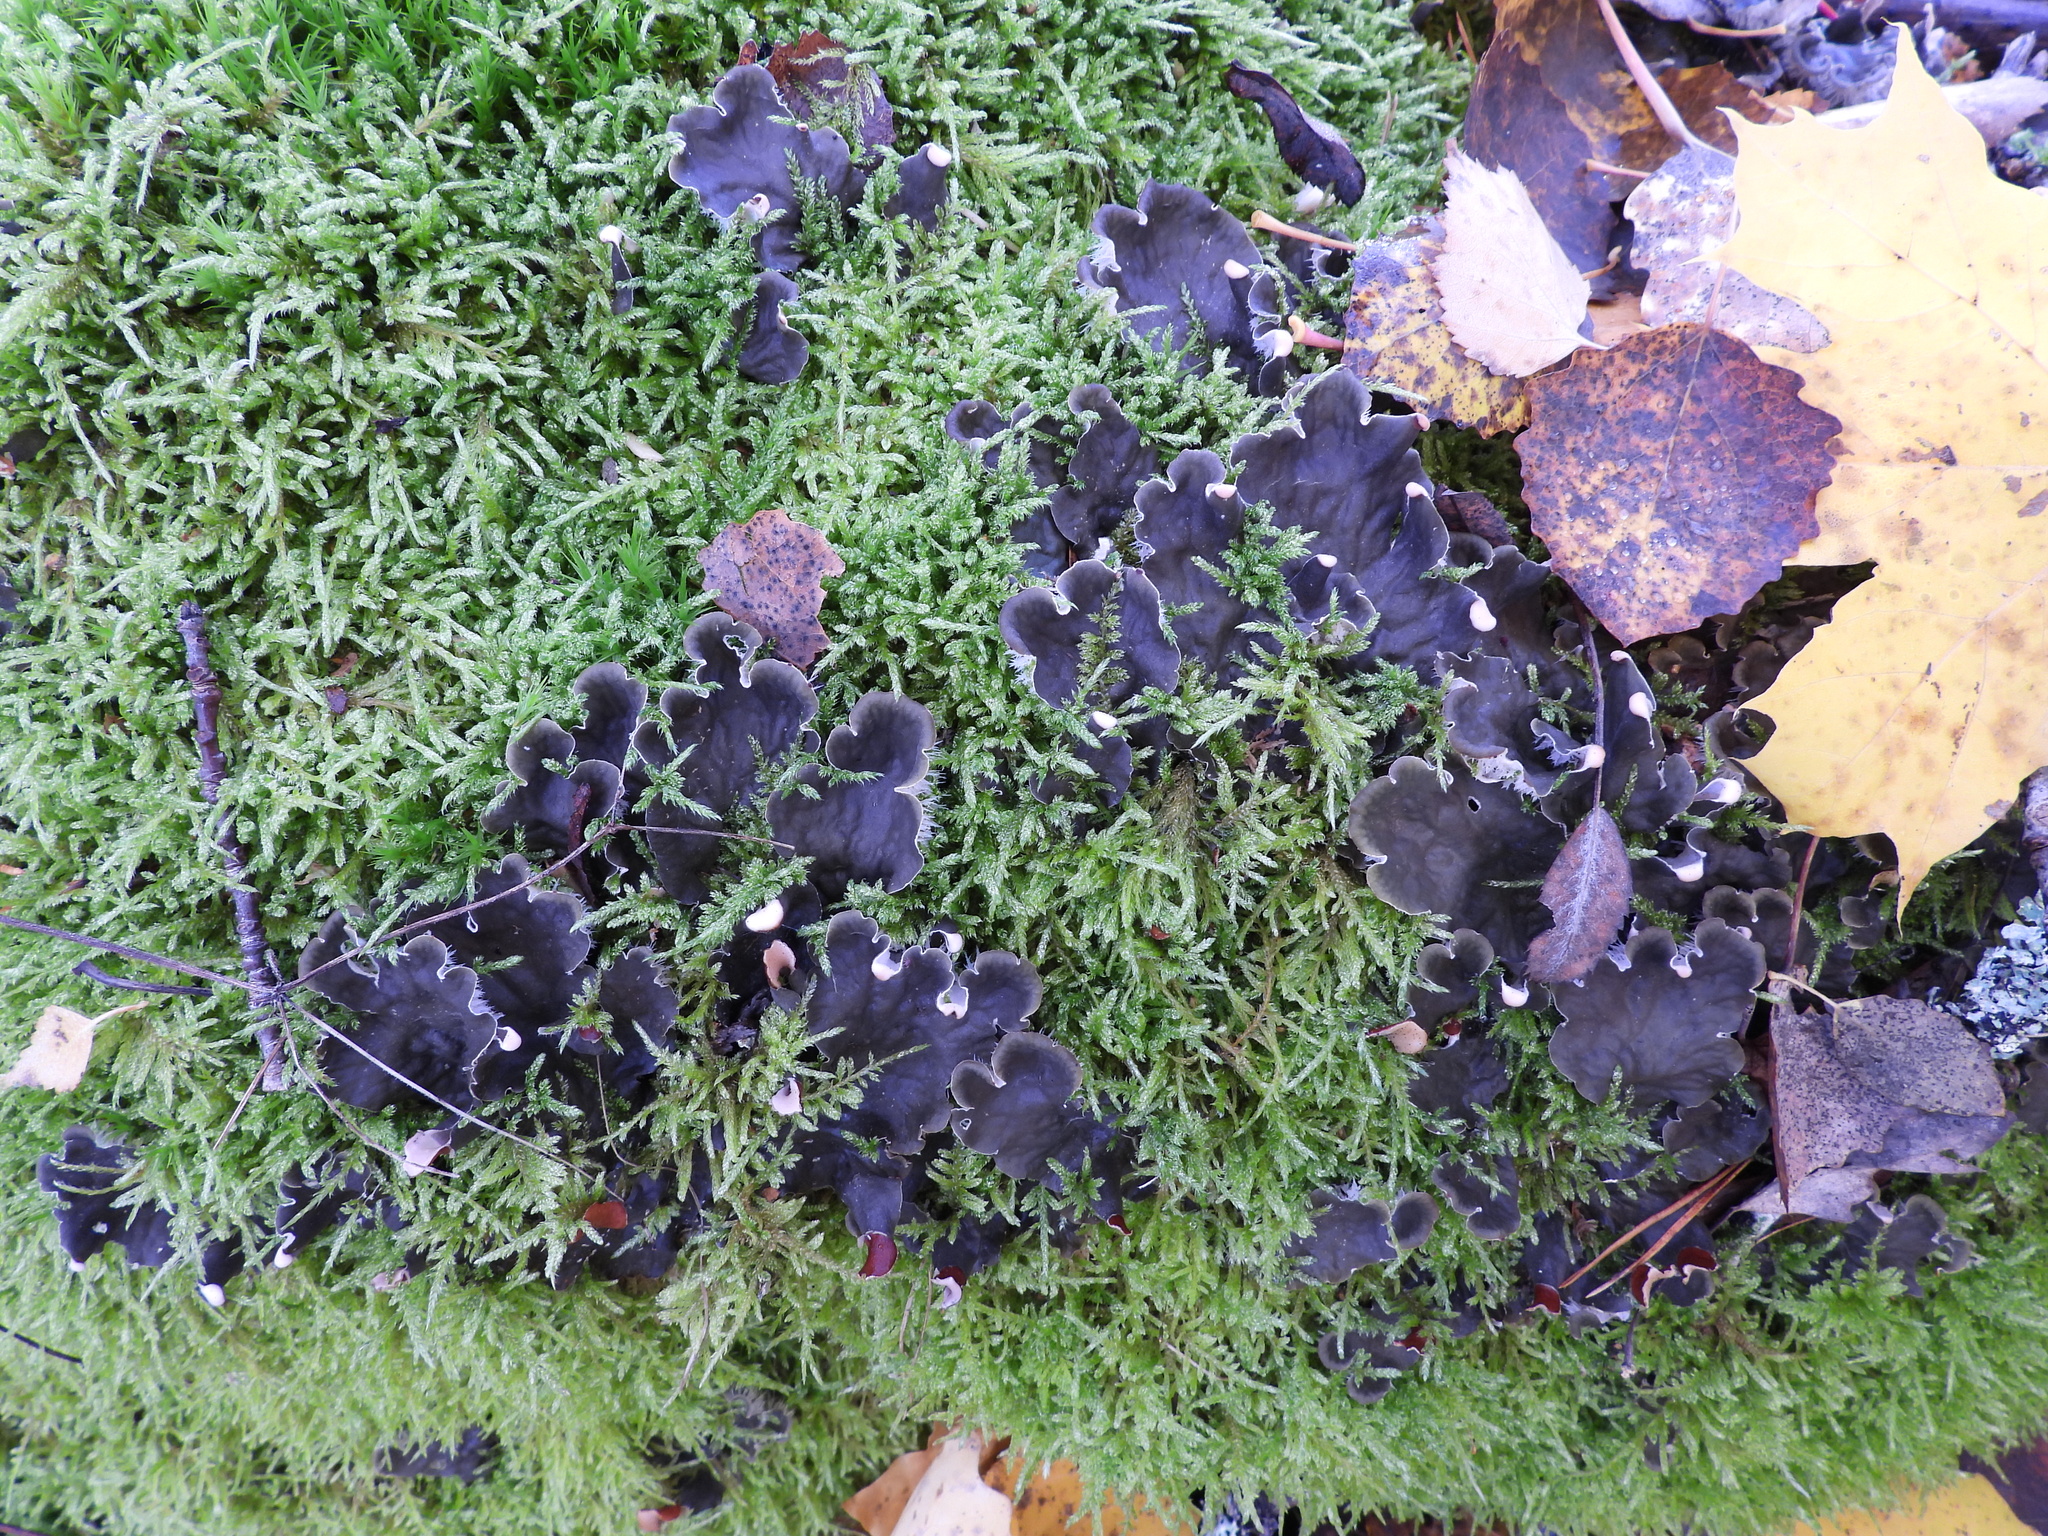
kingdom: Fungi
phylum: Ascomycota
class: Lecanoromycetes
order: Peltigerales
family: Peltigeraceae
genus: Peltigera
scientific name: Peltigera canina
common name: Dog pelt lichen
